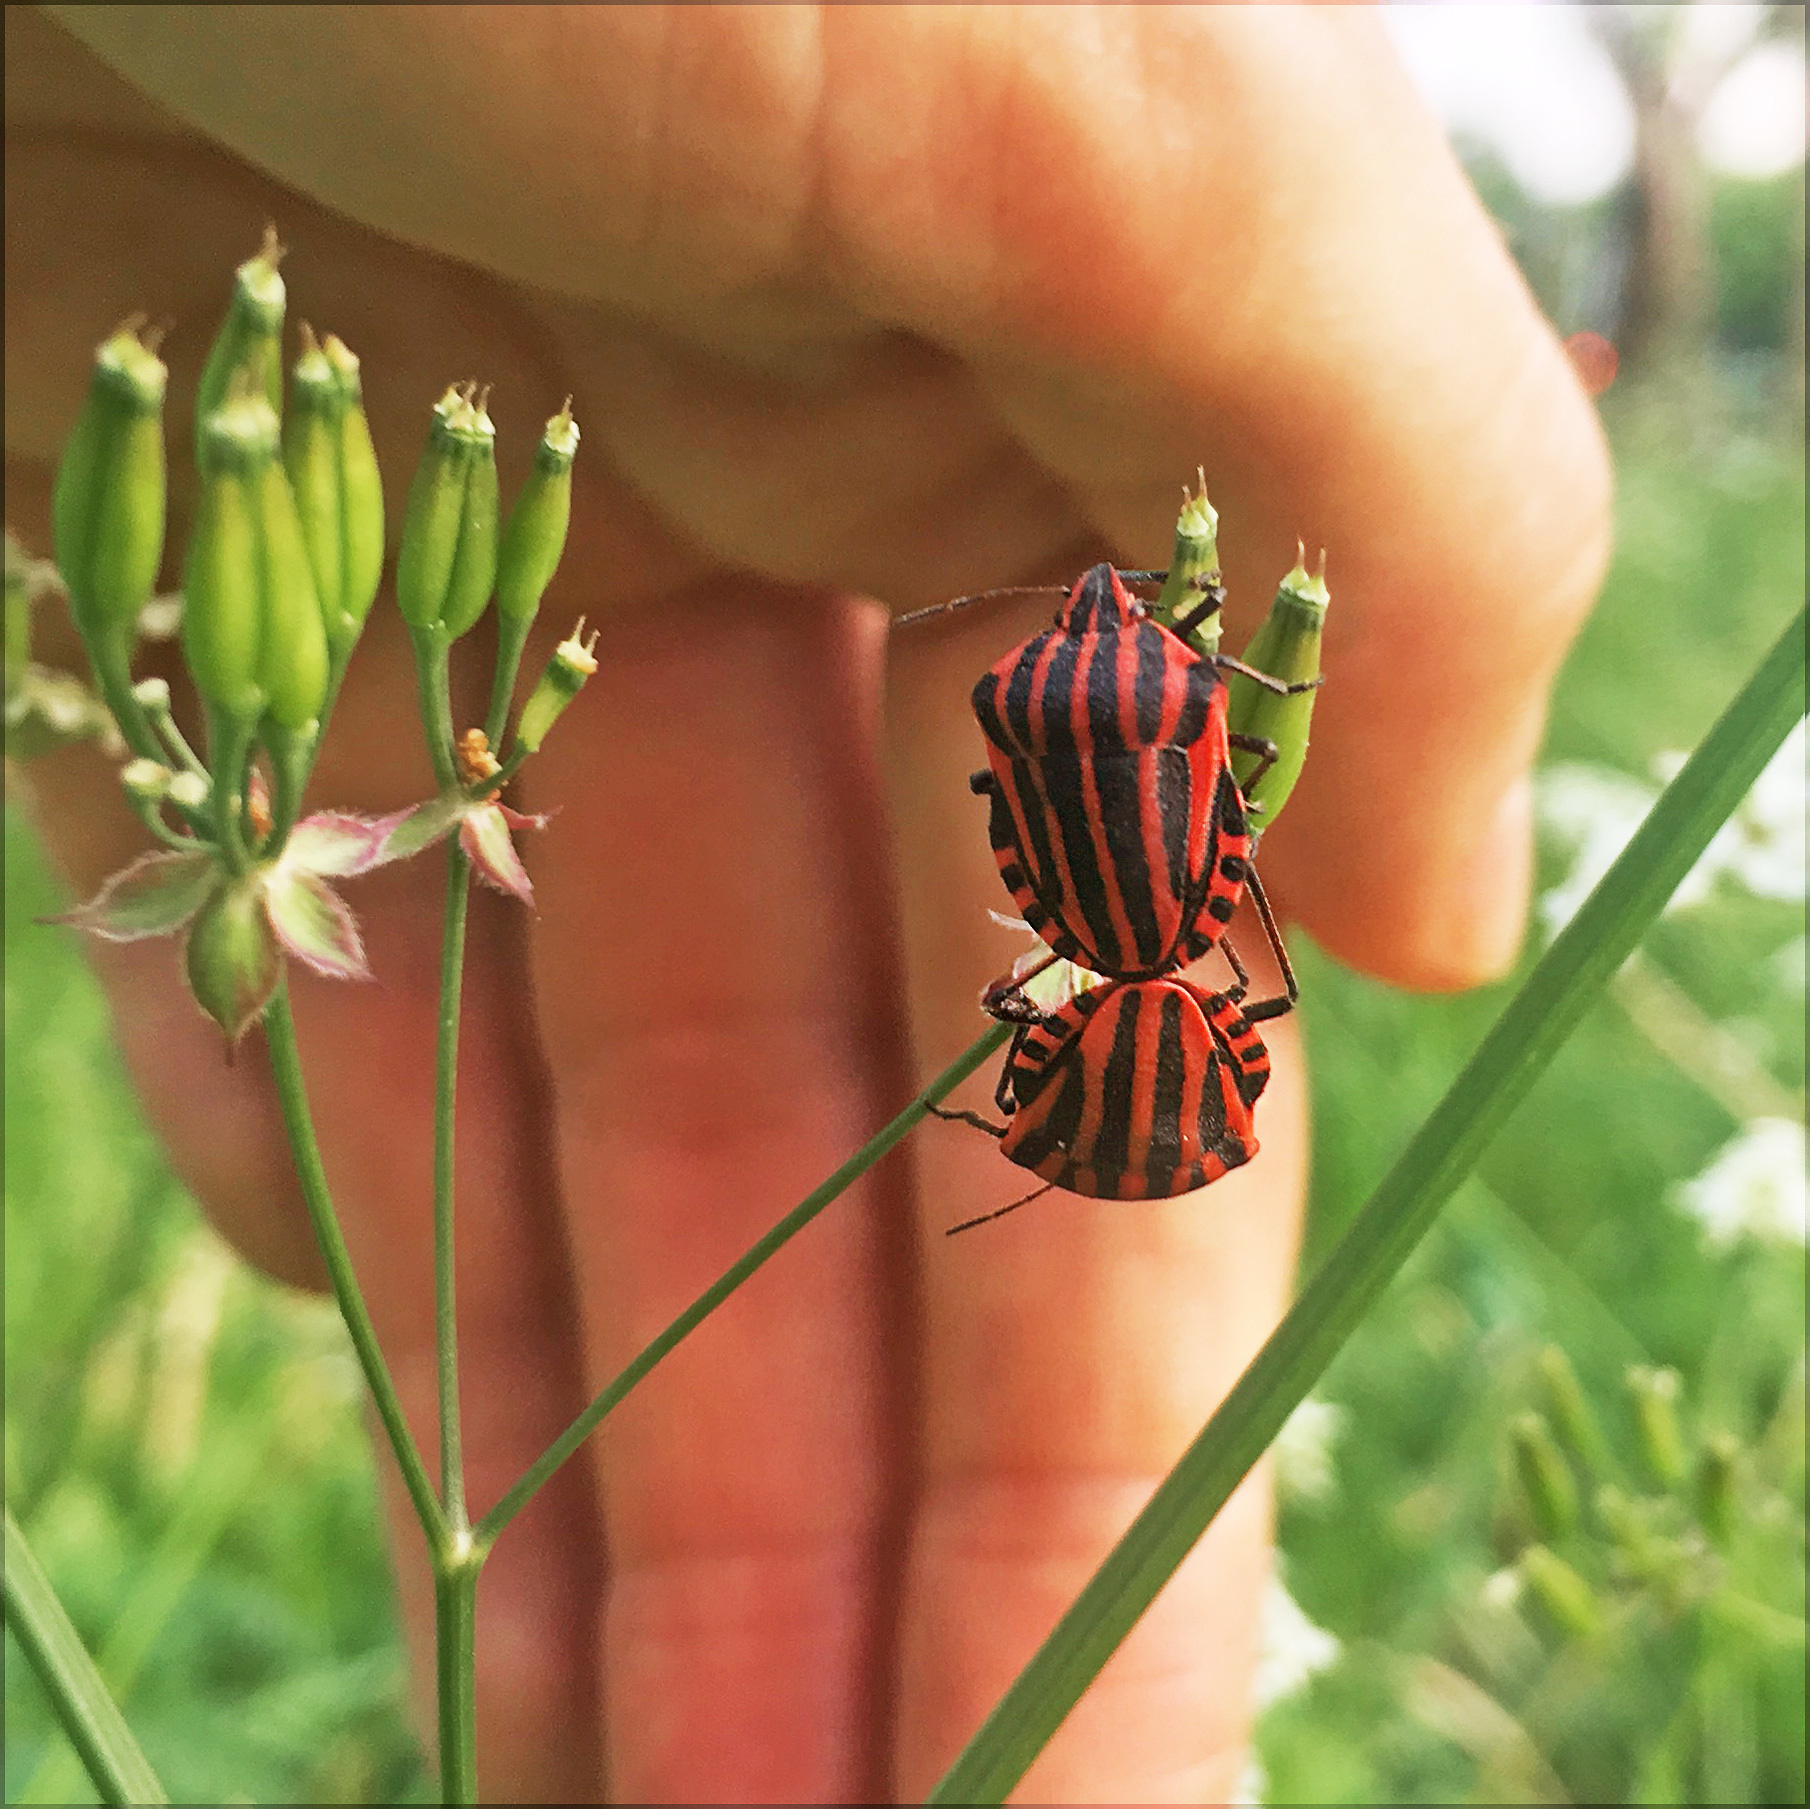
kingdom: Animalia
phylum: Arthropoda
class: Insecta
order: Hemiptera
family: Pentatomidae
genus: Graphosoma
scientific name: Graphosoma italicum
